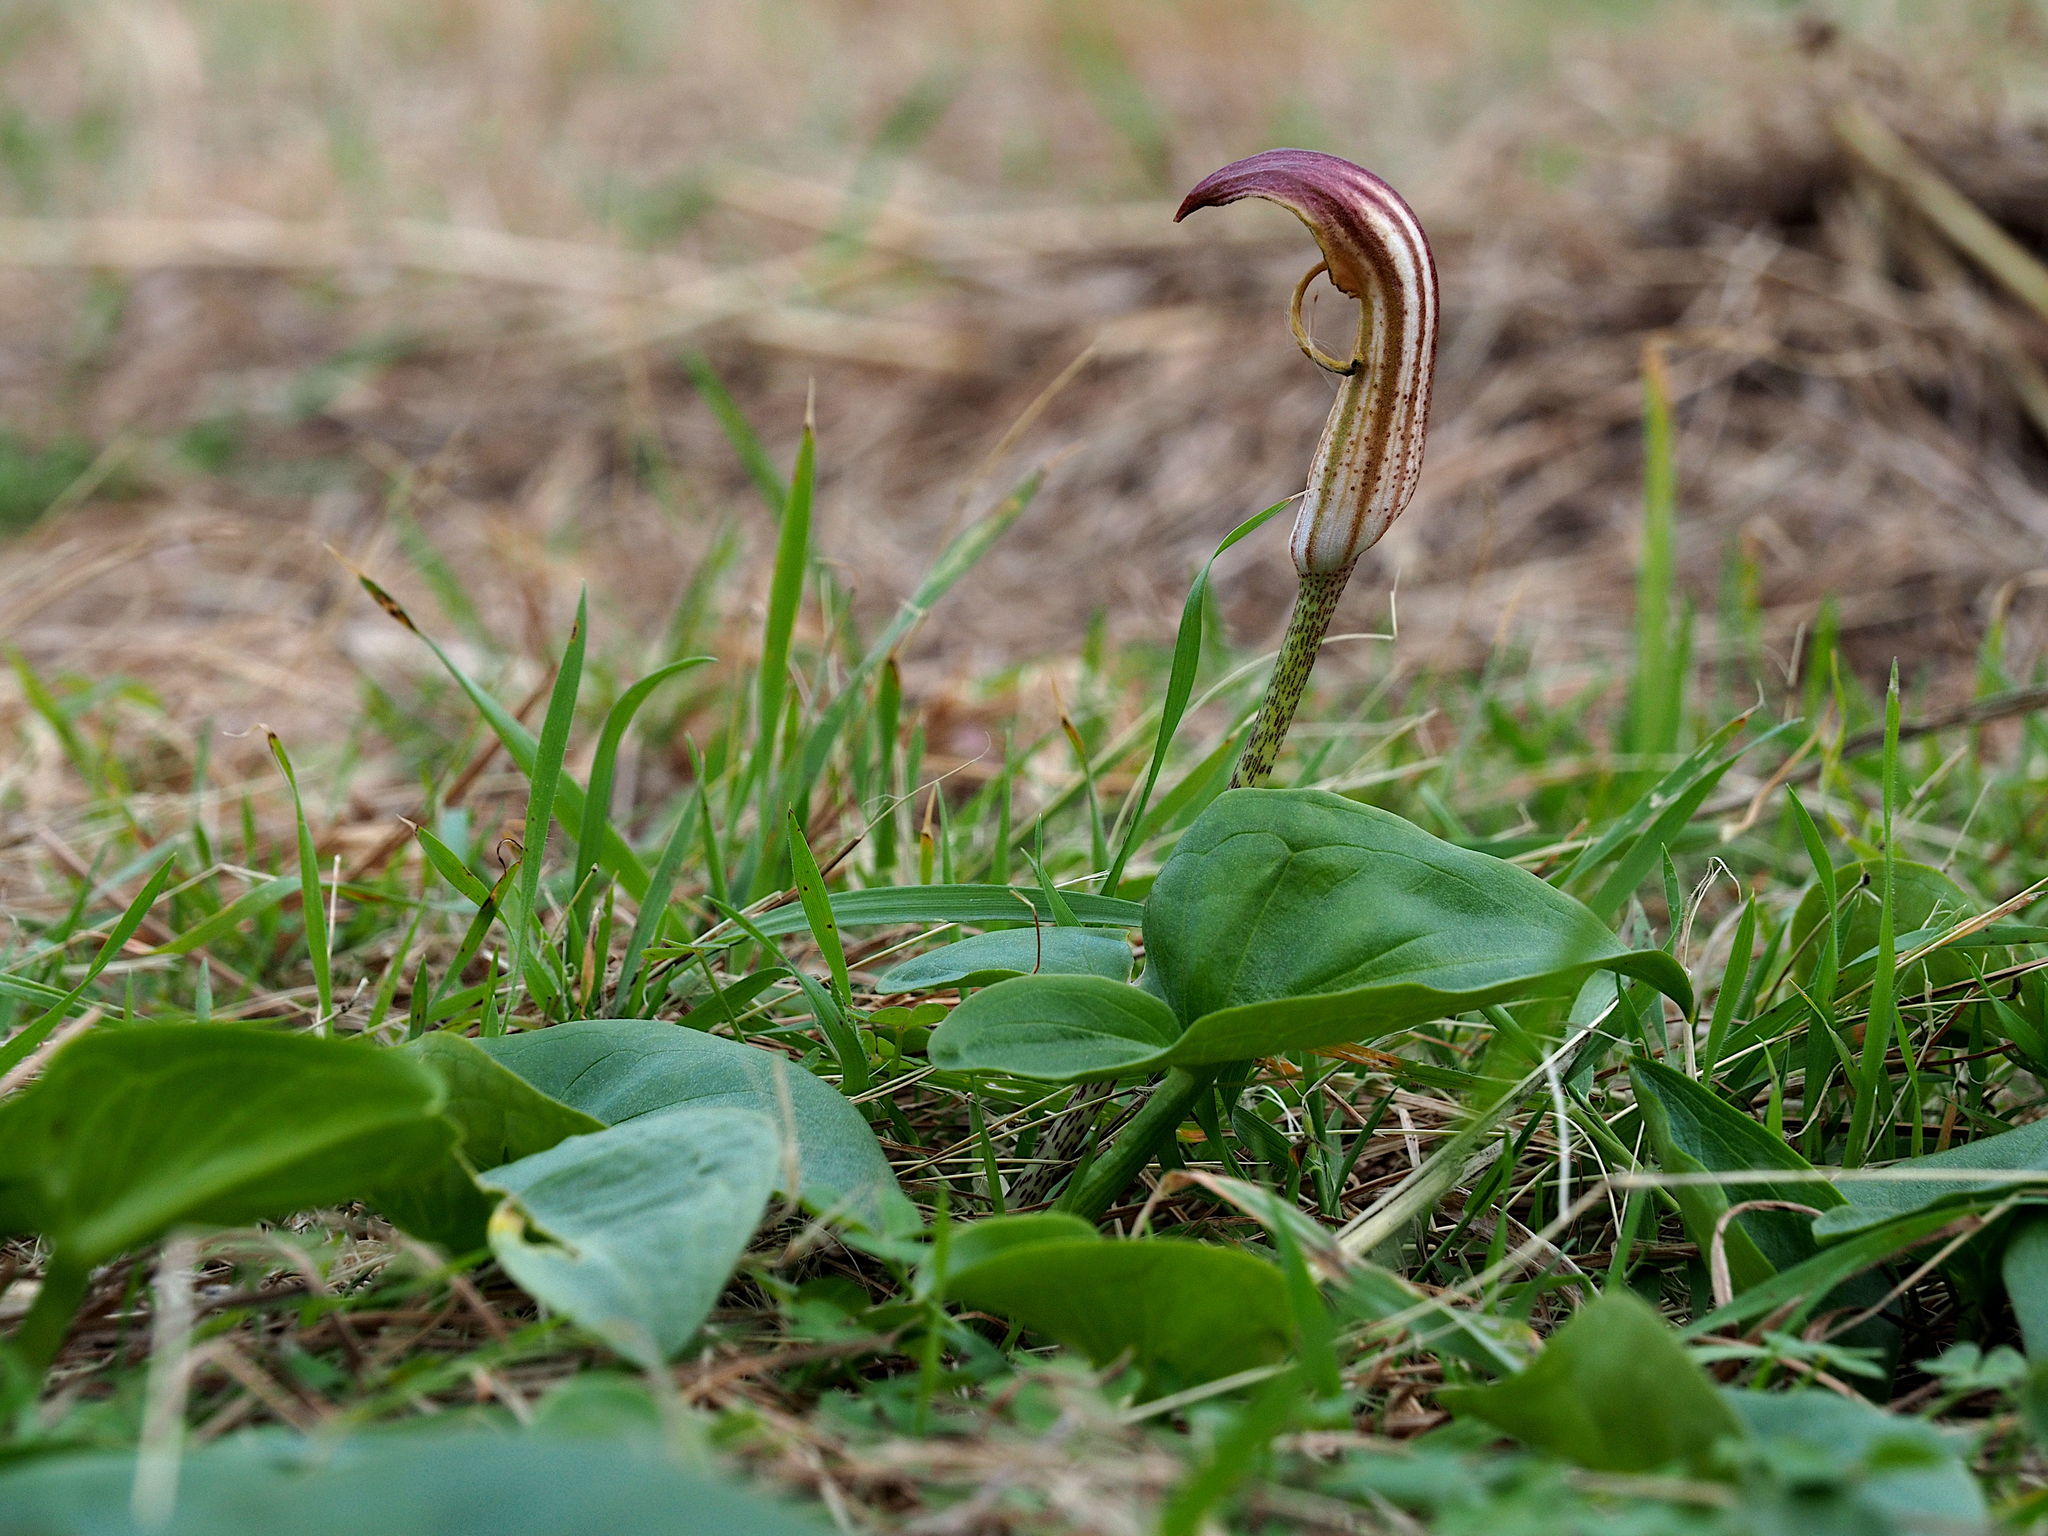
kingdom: Plantae
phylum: Tracheophyta
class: Liliopsida
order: Alismatales
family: Araceae
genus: Arisarum
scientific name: Arisarum vulgare
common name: Common arisarum
